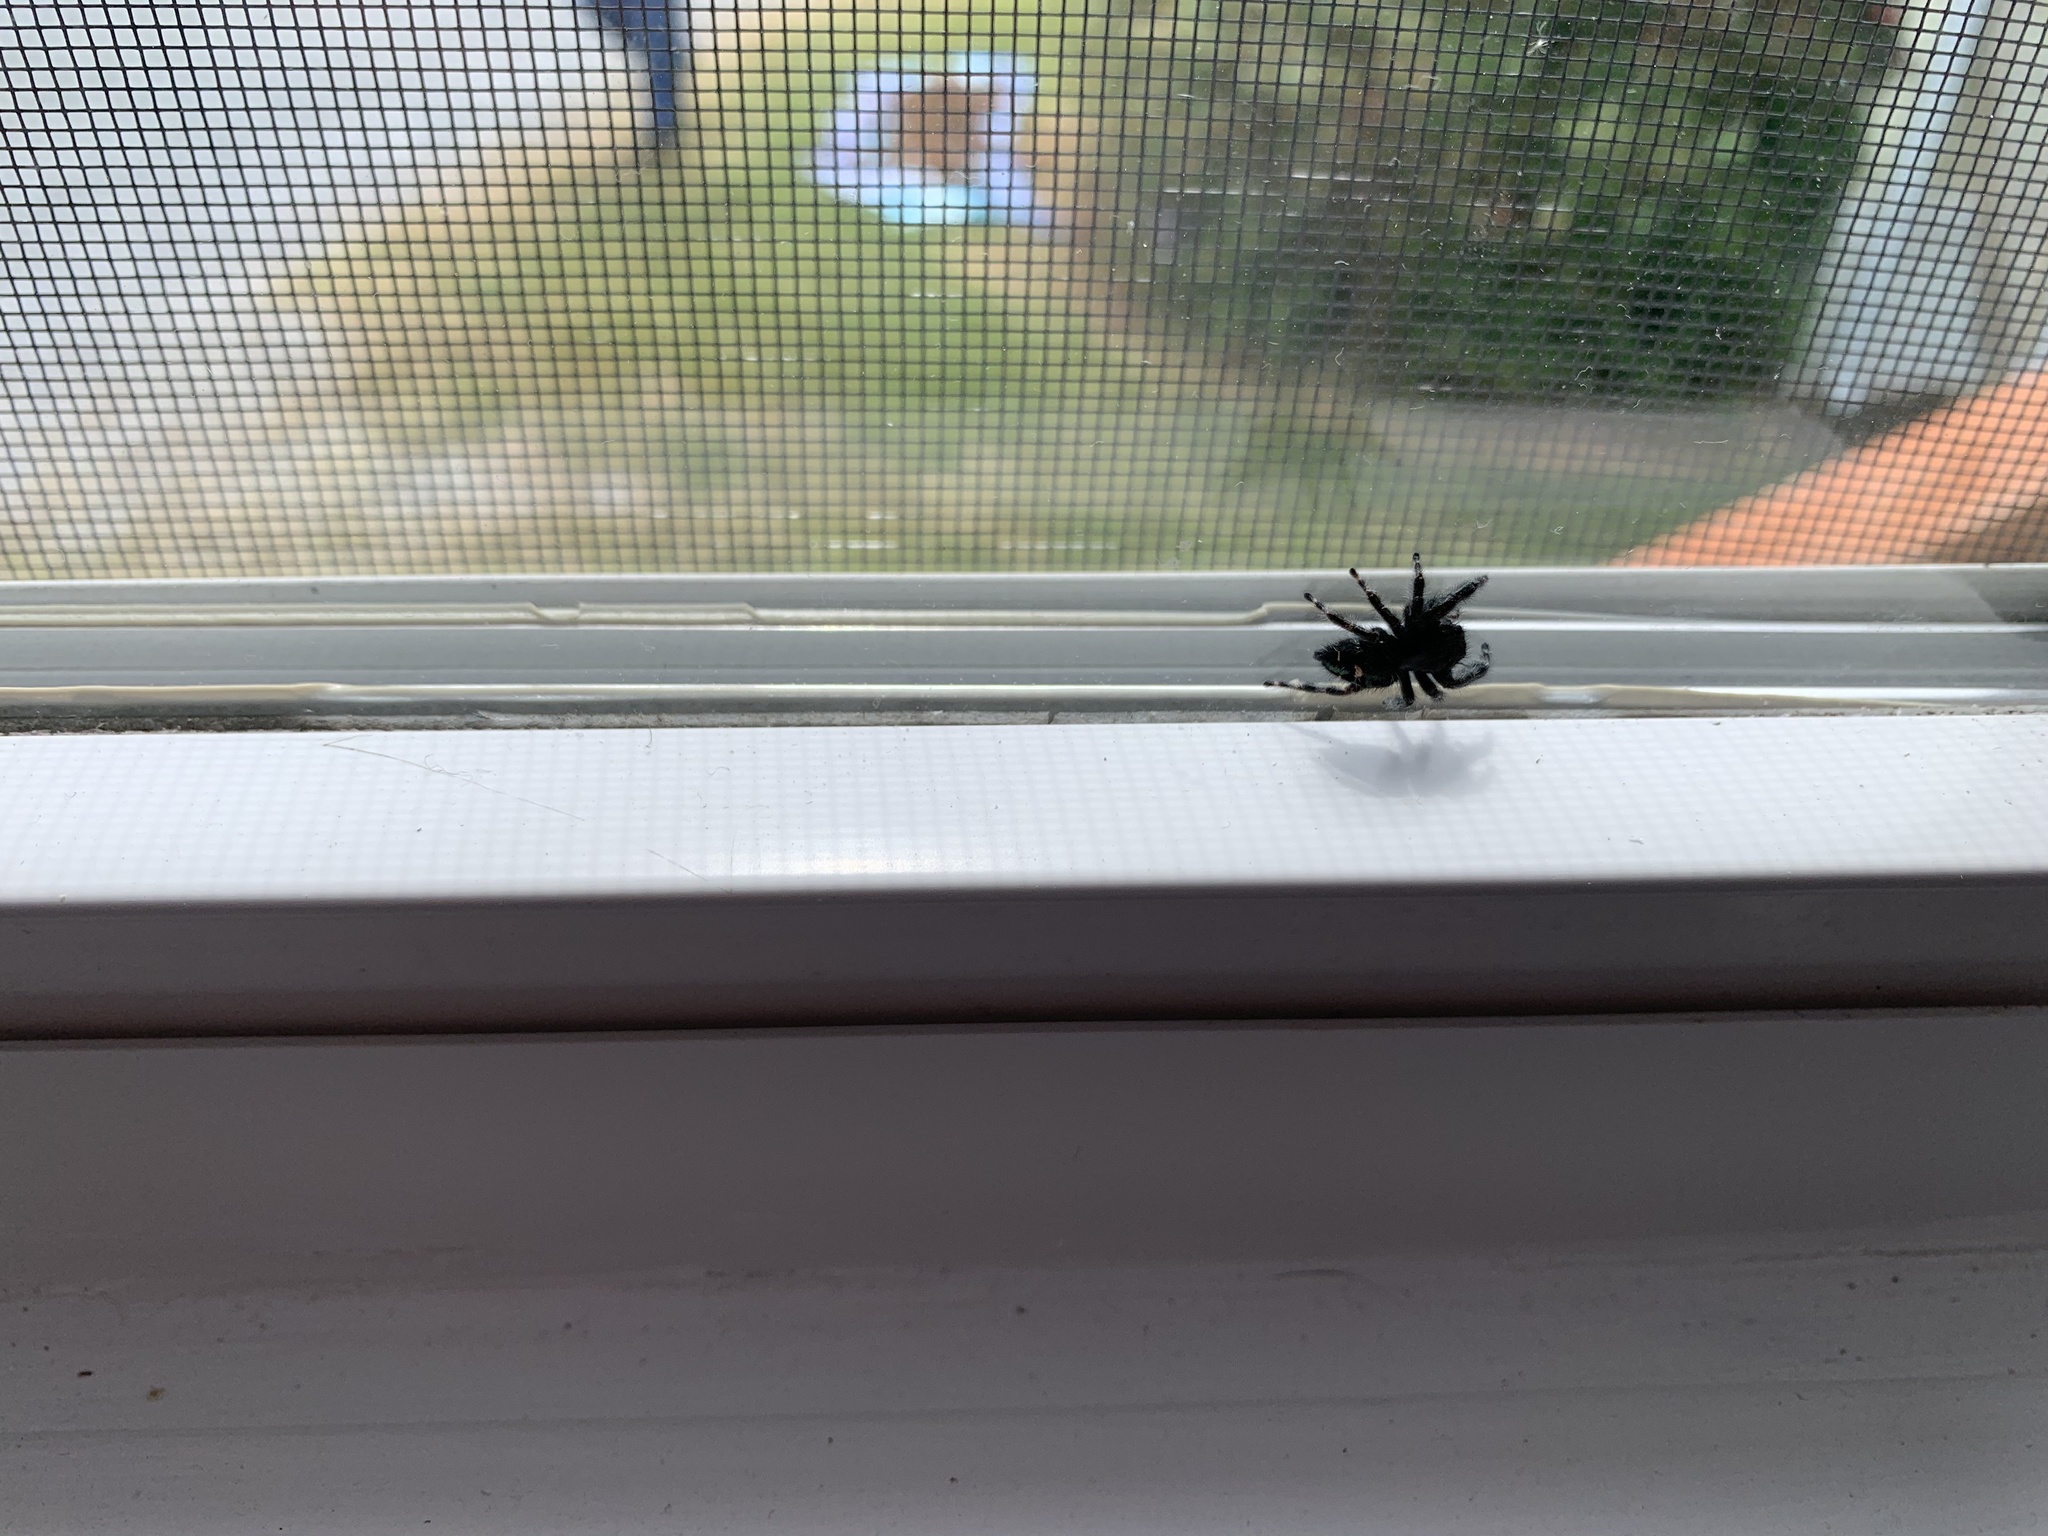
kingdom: Animalia
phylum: Arthropoda
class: Arachnida
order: Araneae
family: Salticidae
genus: Phidippus
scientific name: Phidippus audax
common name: Bold jumper
